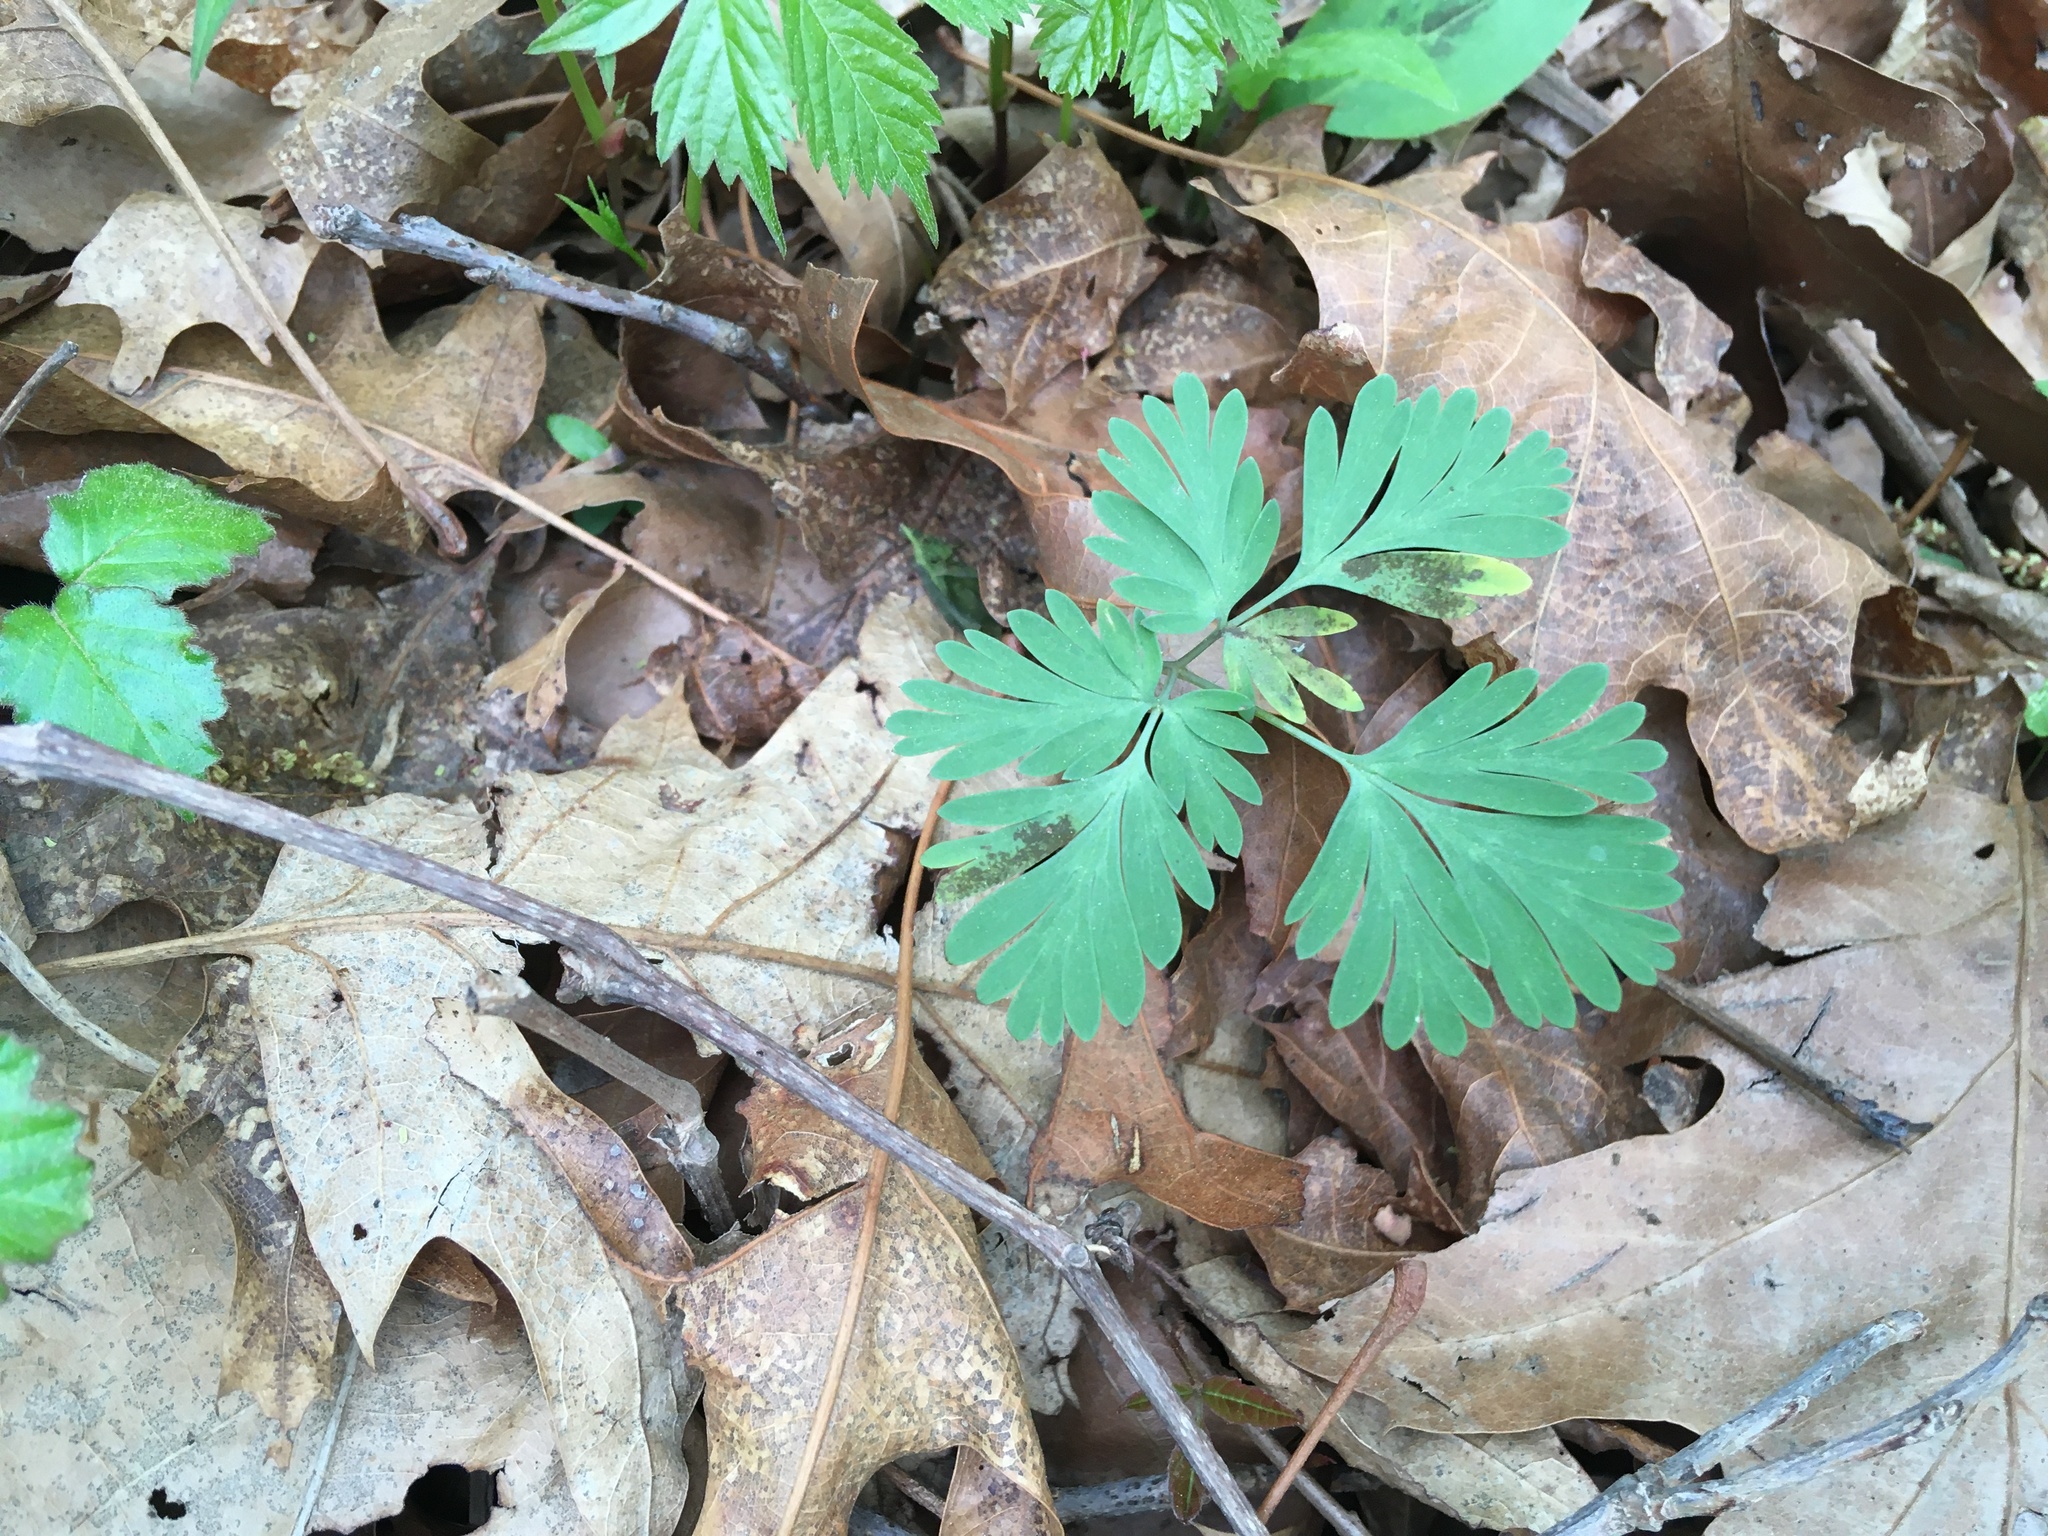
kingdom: Plantae
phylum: Tracheophyta
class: Magnoliopsida
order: Ranunculales
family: Papaveraceae
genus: Dicentra
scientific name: Dicentra cucullaria
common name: Dutchman's breeches
